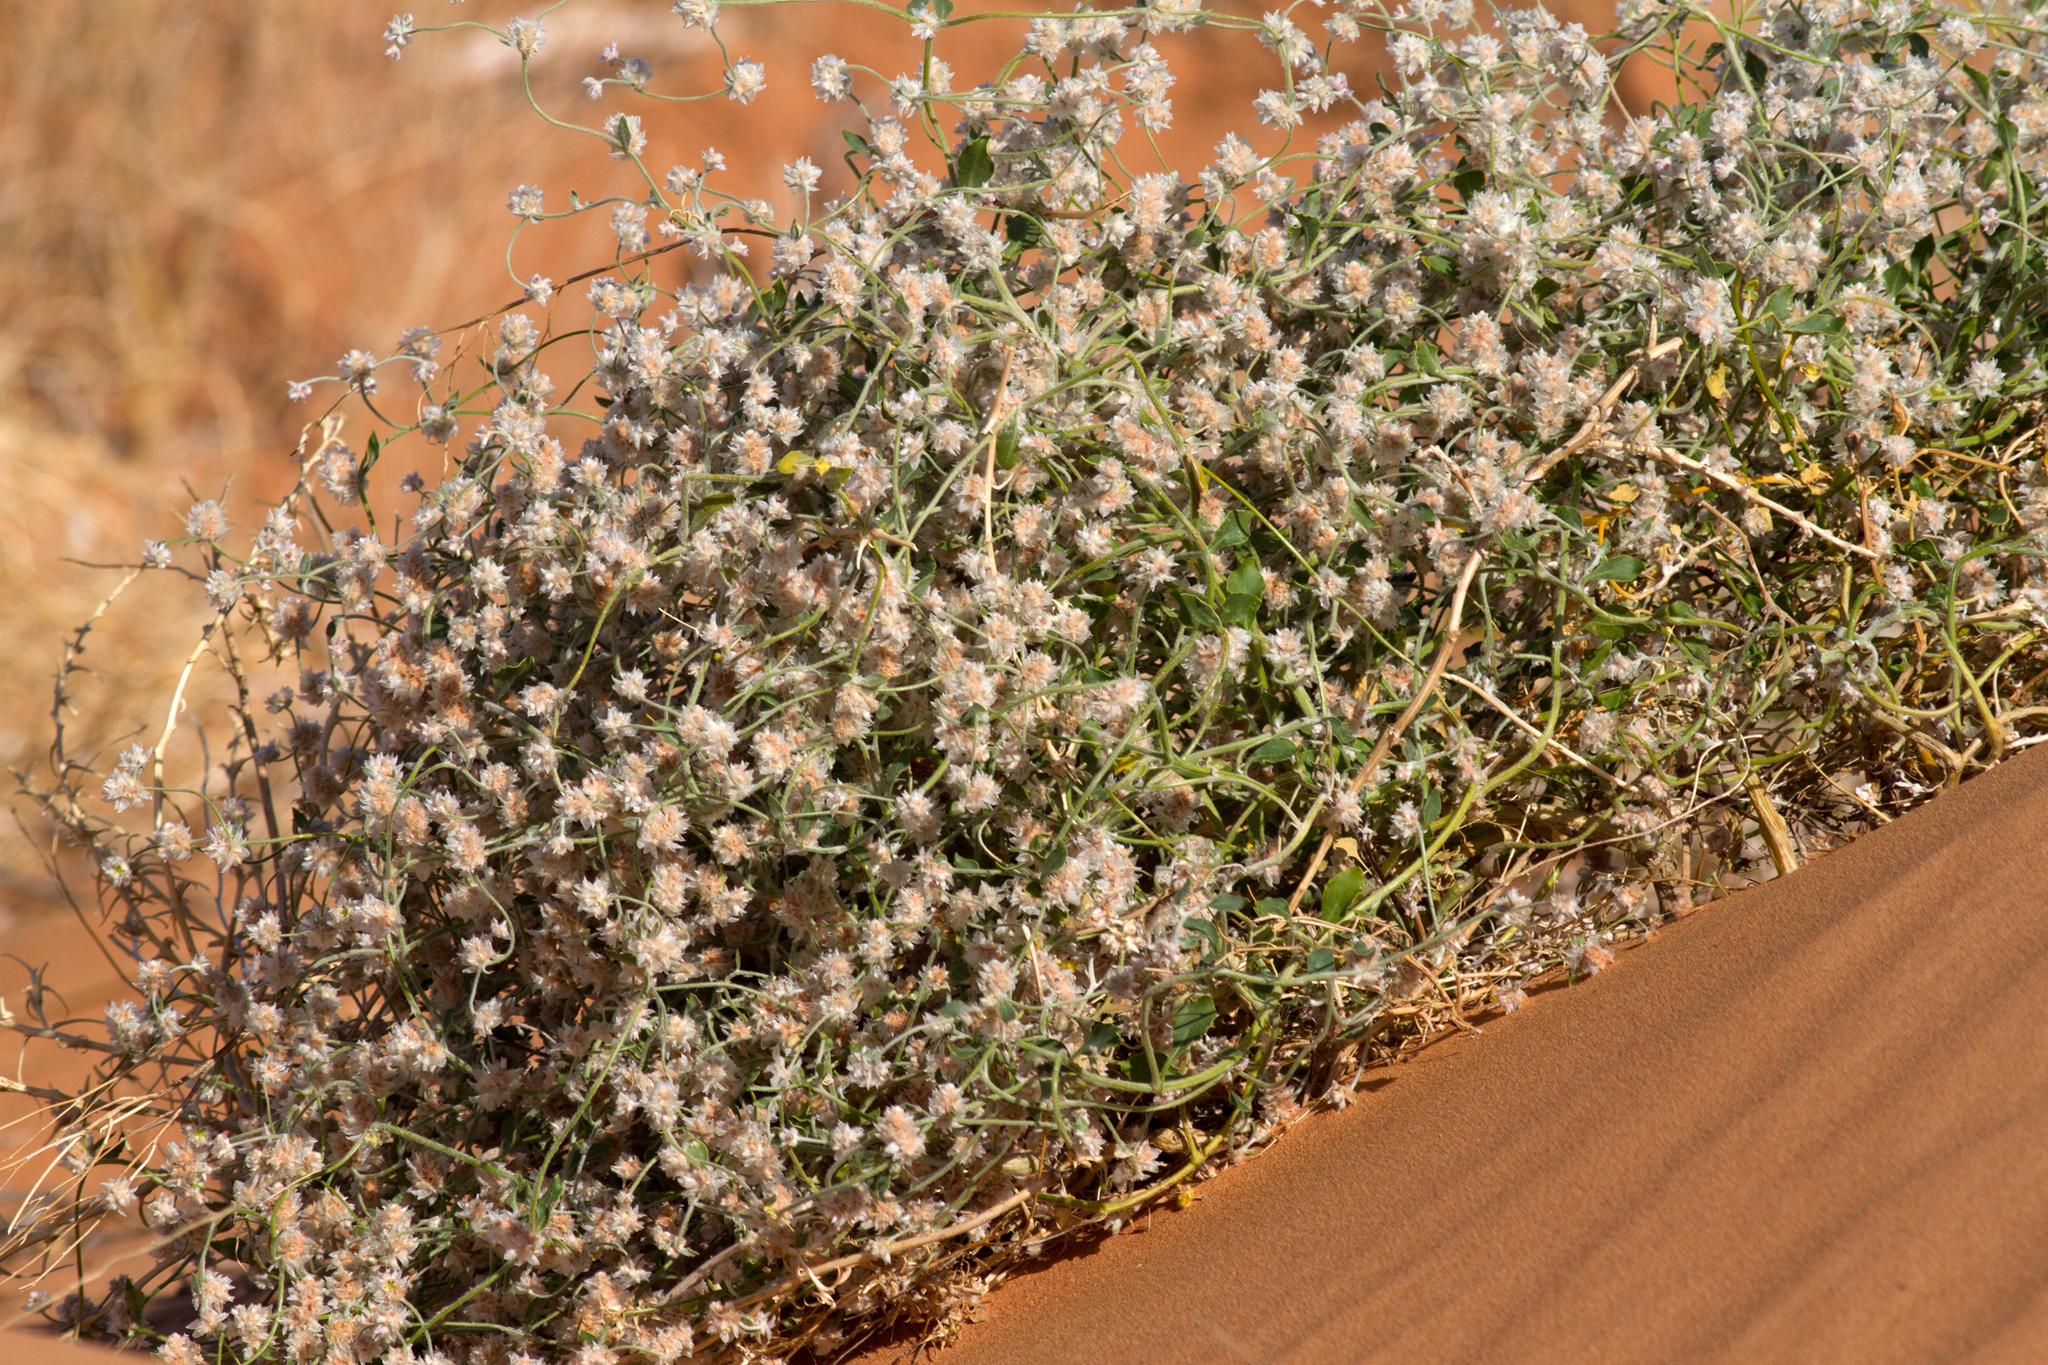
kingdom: Plantae
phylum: Tracheophyta
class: Magnoliopsida
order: Caryophyllales
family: Amaranthaceae
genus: Ptilotus
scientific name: Ptilotus latifolius
